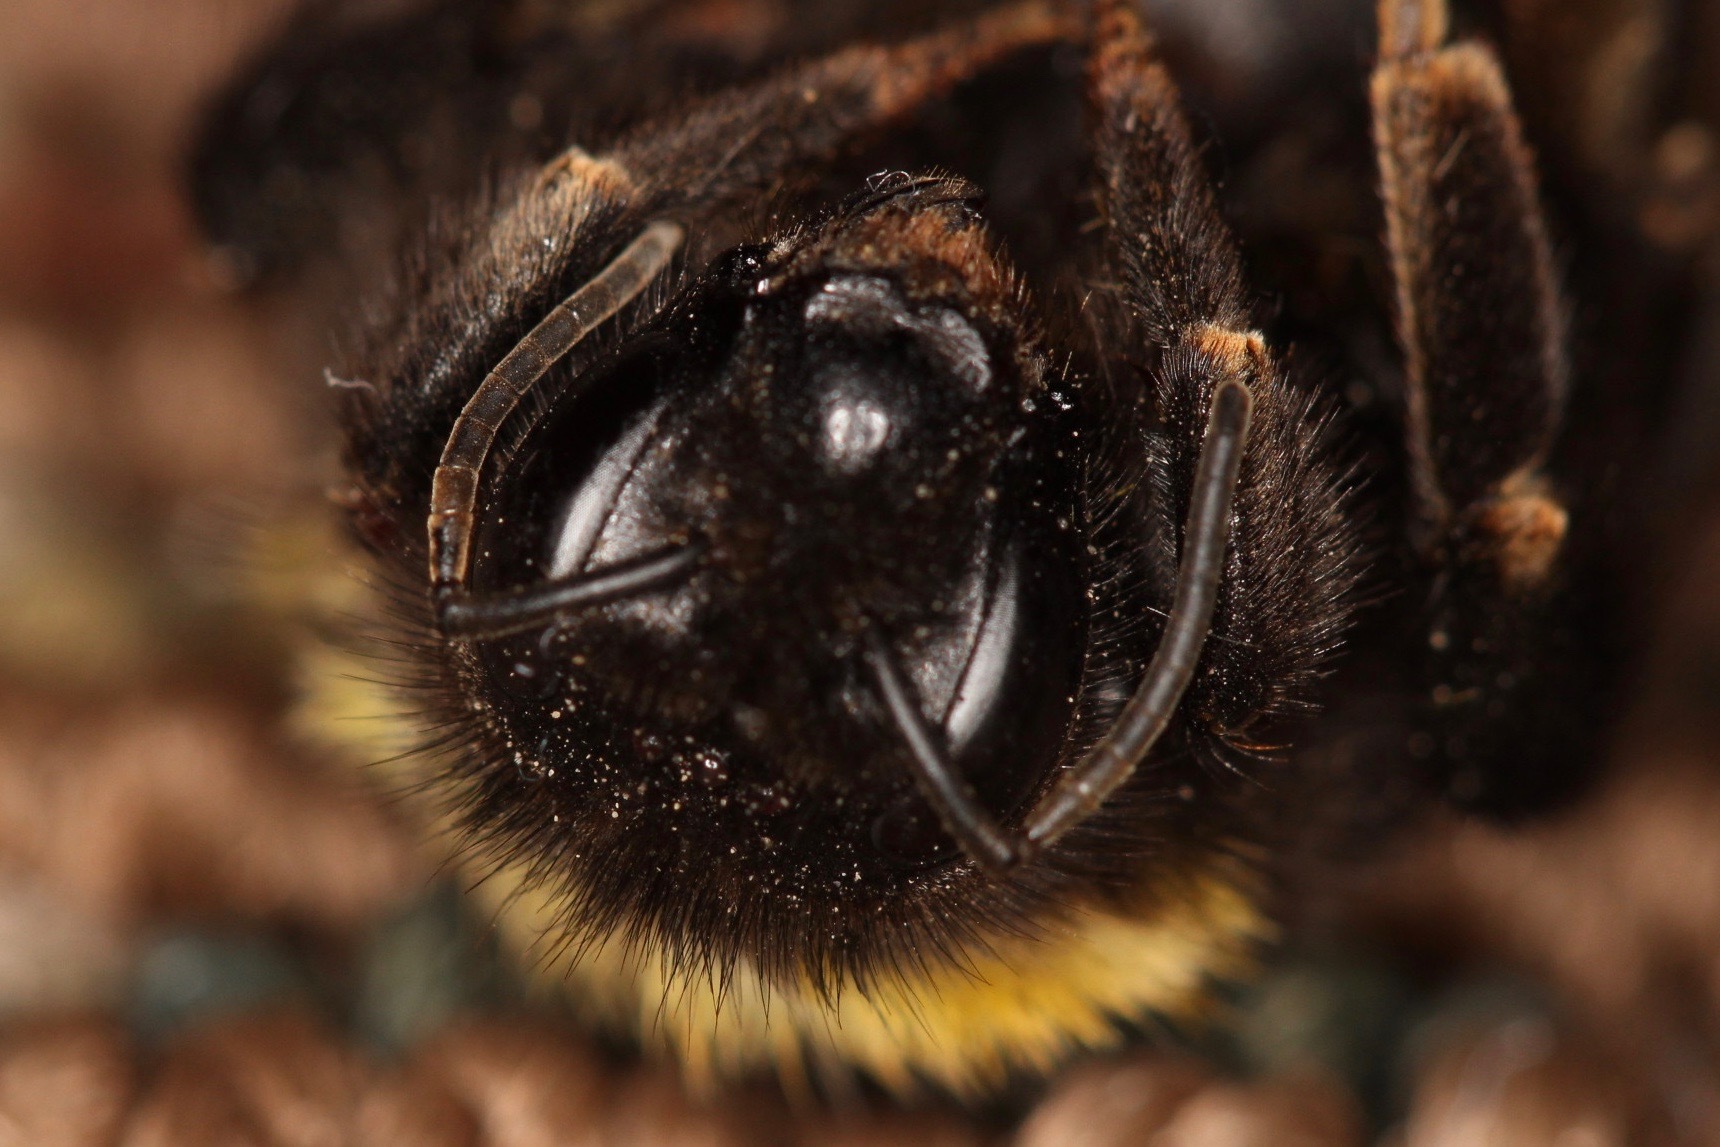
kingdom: Animalia
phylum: Arthropoda
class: Insecta
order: Hymenoptera
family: Apidae
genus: Bombus
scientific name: Bombus terrestris
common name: Buff-tailed bumblebee
